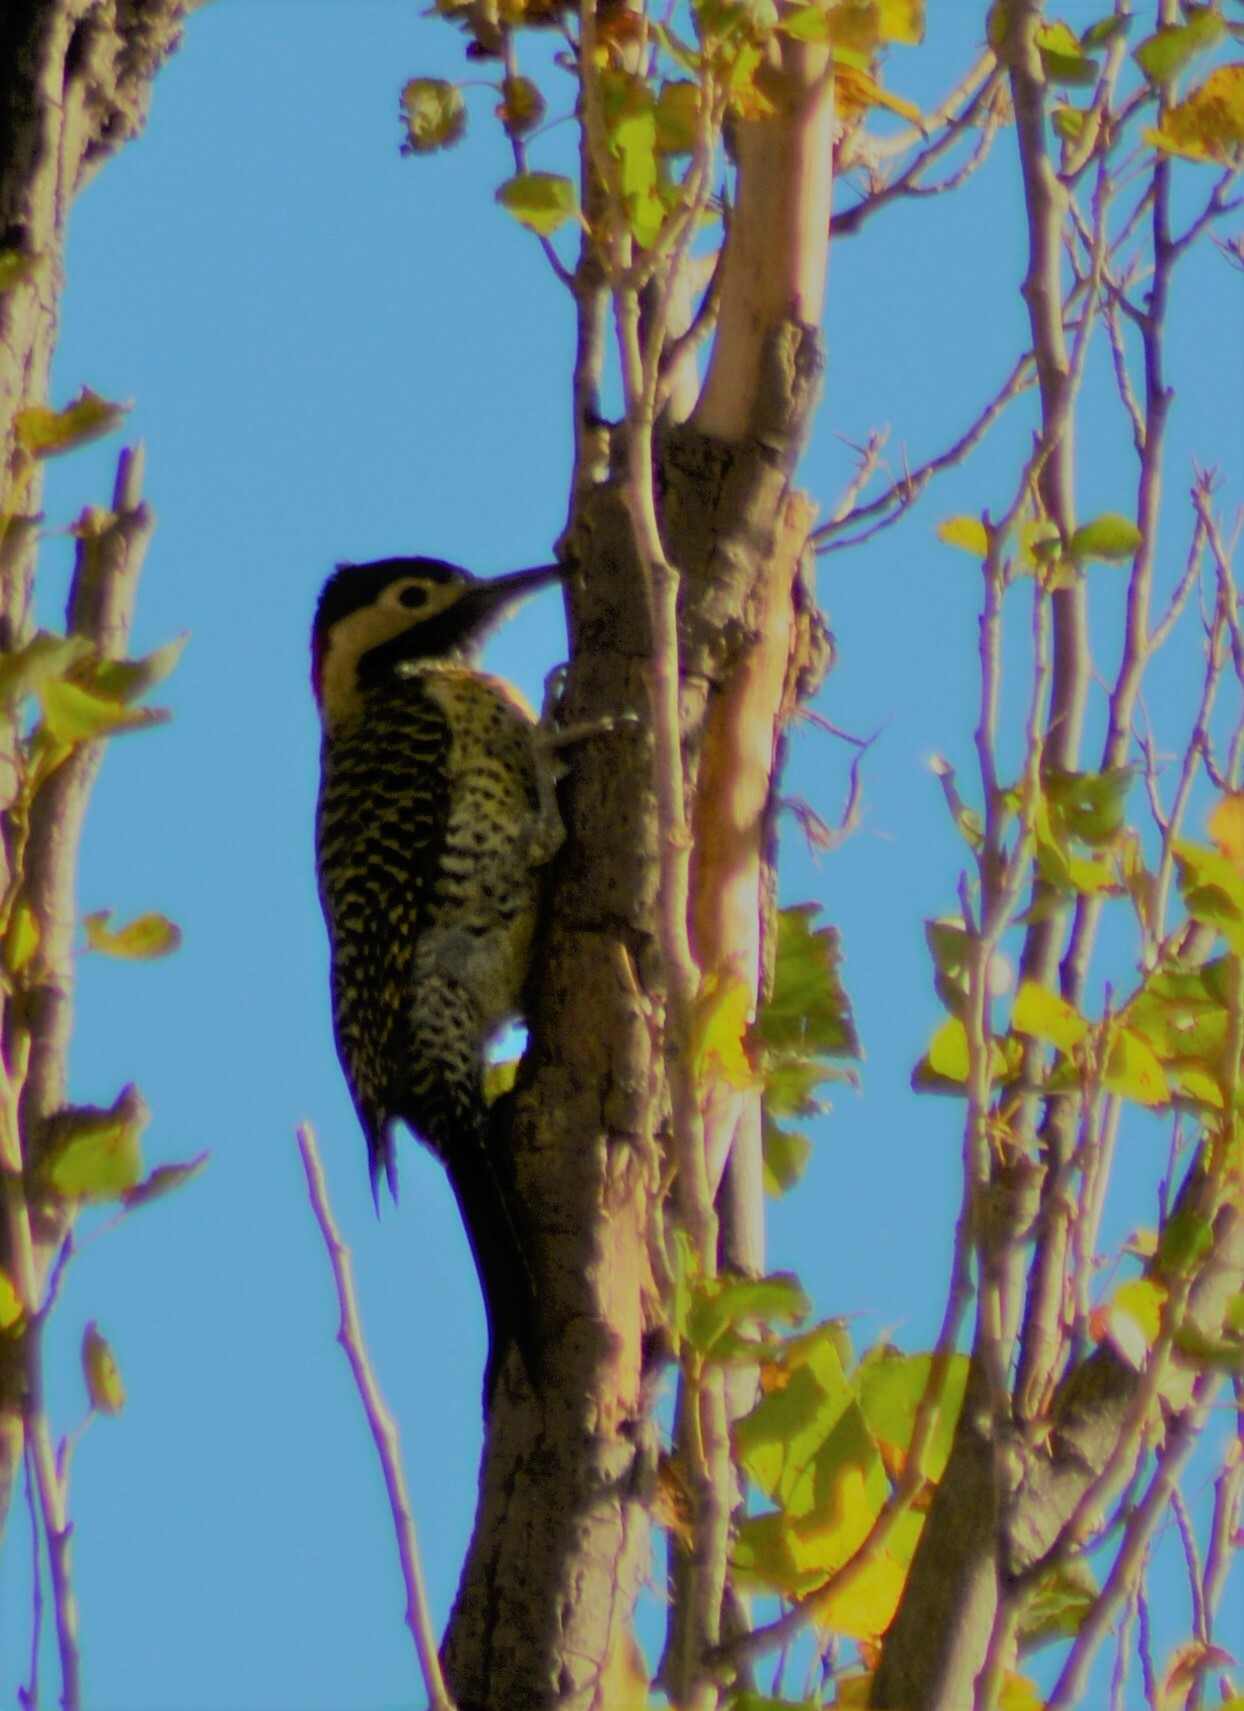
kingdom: Animalia
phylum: Chordata
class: Aves
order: Piciformes
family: Picidae
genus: Colaptes
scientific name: Colaptes melanochloros
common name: Green-barred woodpecker
